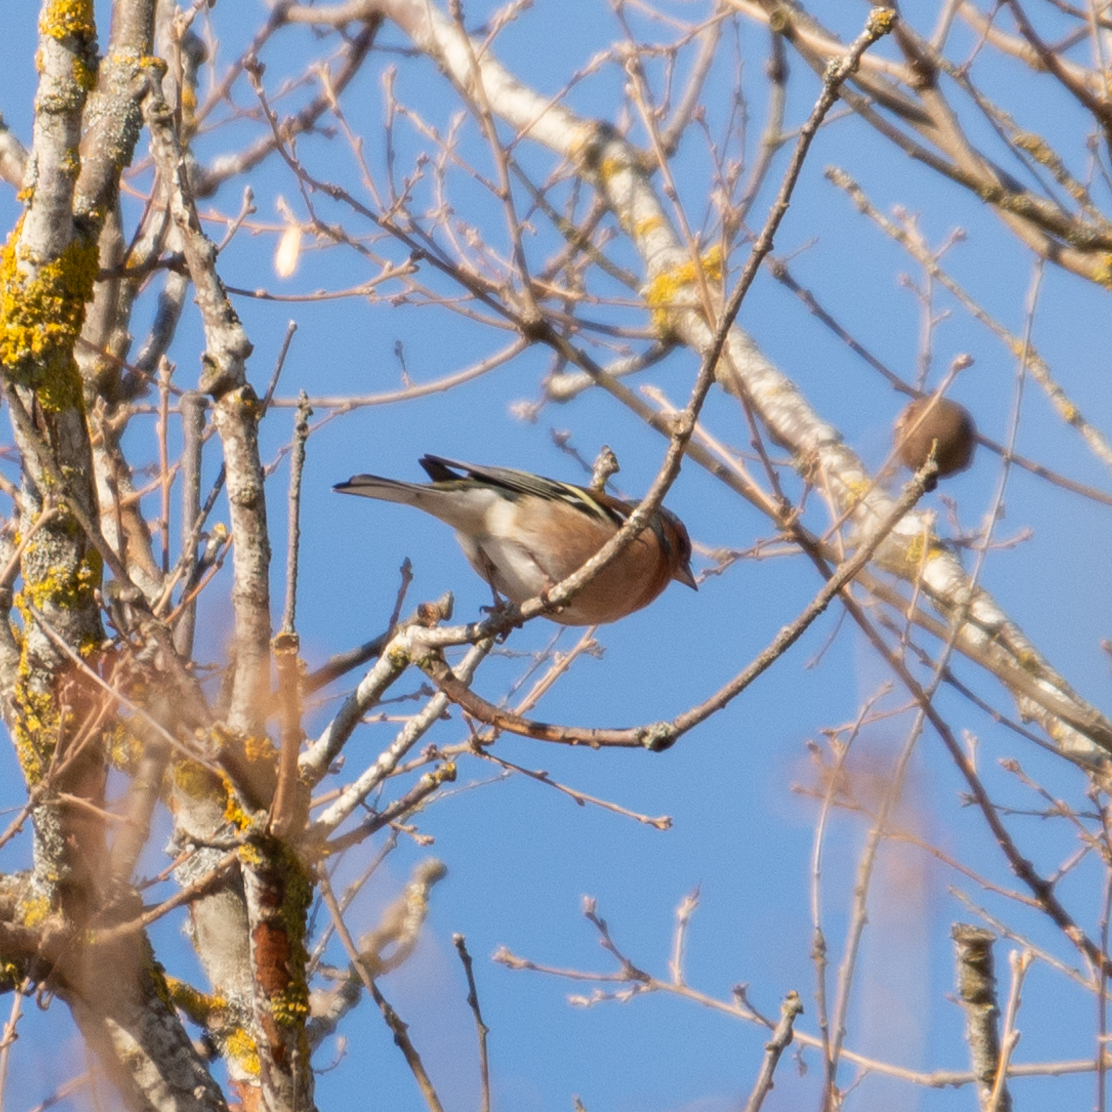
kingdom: Animalia
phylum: Chordata
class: Aves
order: Passeriformes
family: Fringillidae
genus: Fringilla
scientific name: Fringilla coelebs
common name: Common chaffinch
